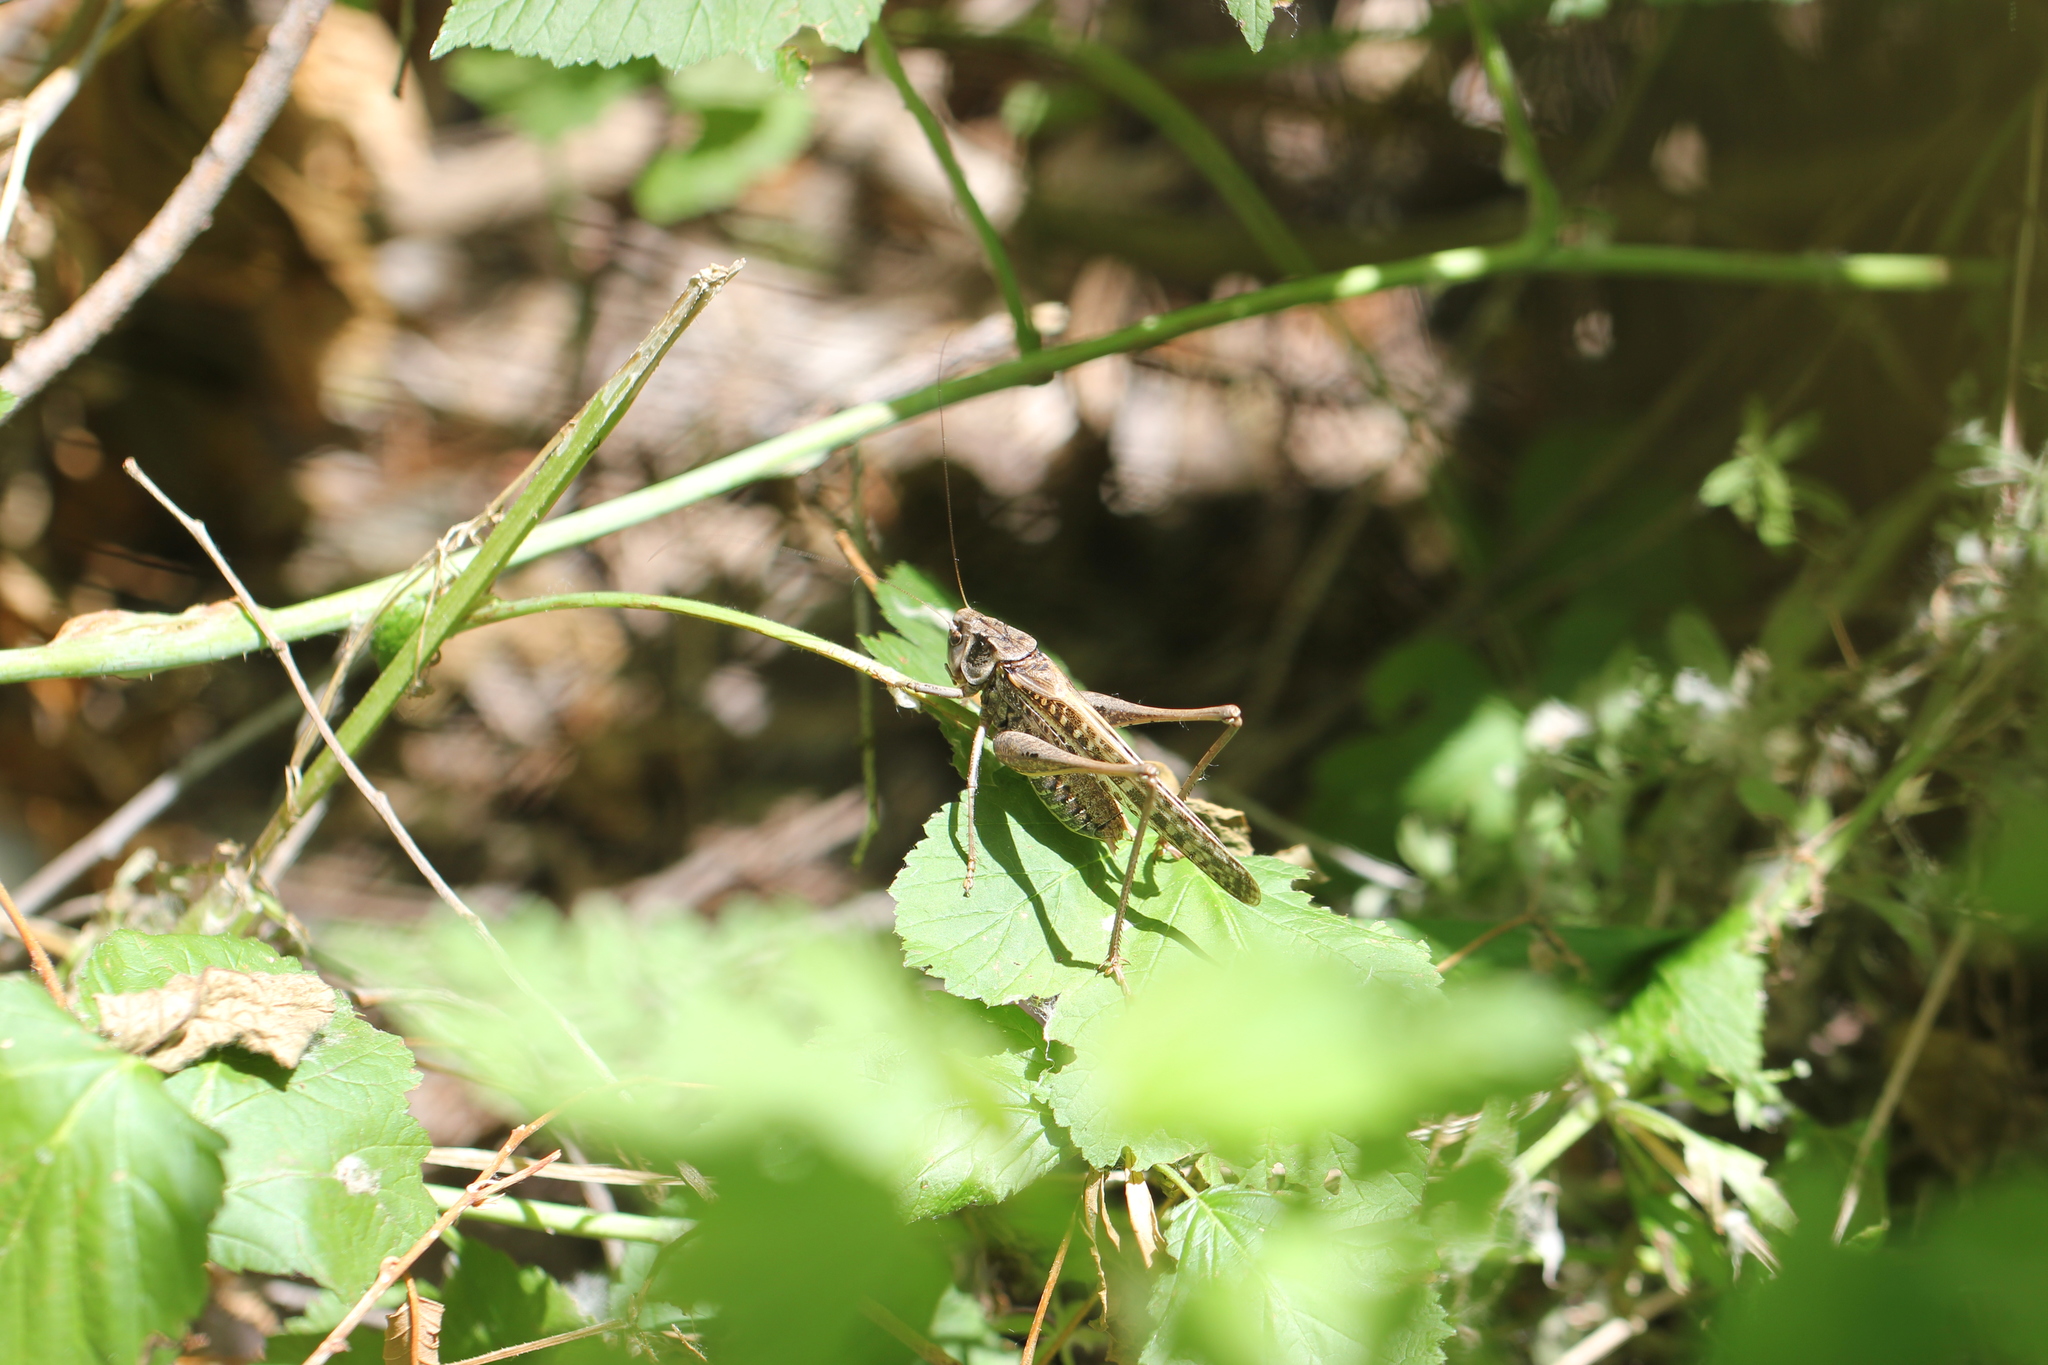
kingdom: Animalia
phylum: Arthropoda
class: Insecta
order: Orthoptera
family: Tettigoniidae
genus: Decticus
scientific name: Decticus verrucivorus
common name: Wart-biter
